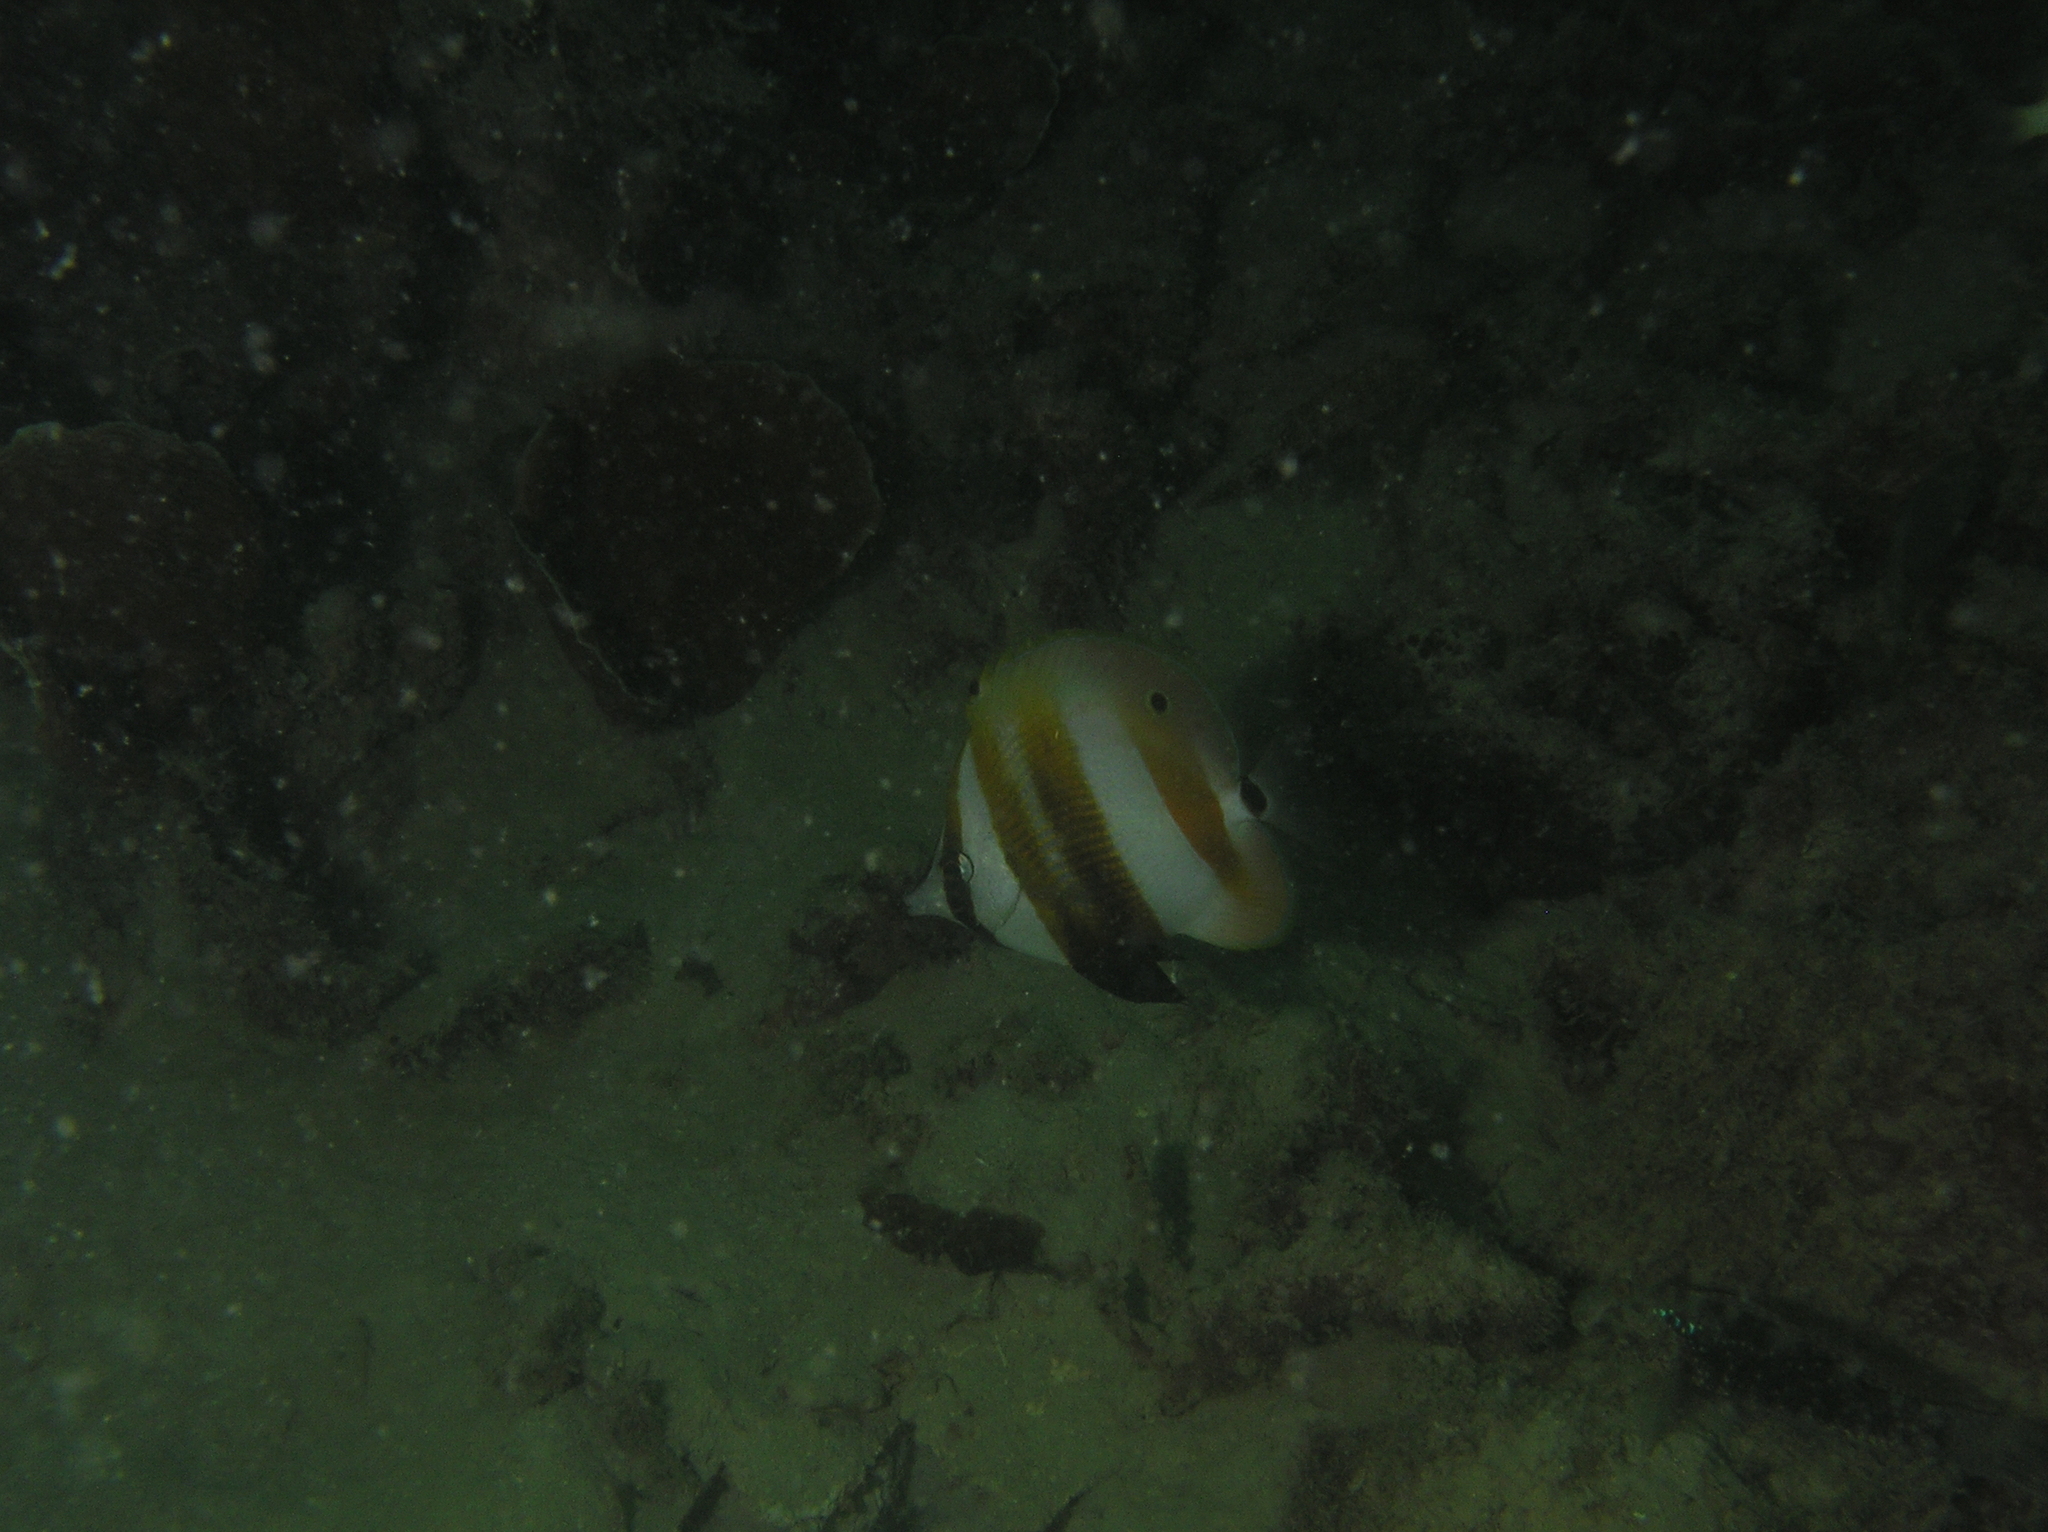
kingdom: Animalia
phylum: Chordata
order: Perciformes
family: Chaetodontidae
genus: Coradion
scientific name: Coradion chrysozonus
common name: Orange-banded coralfish
